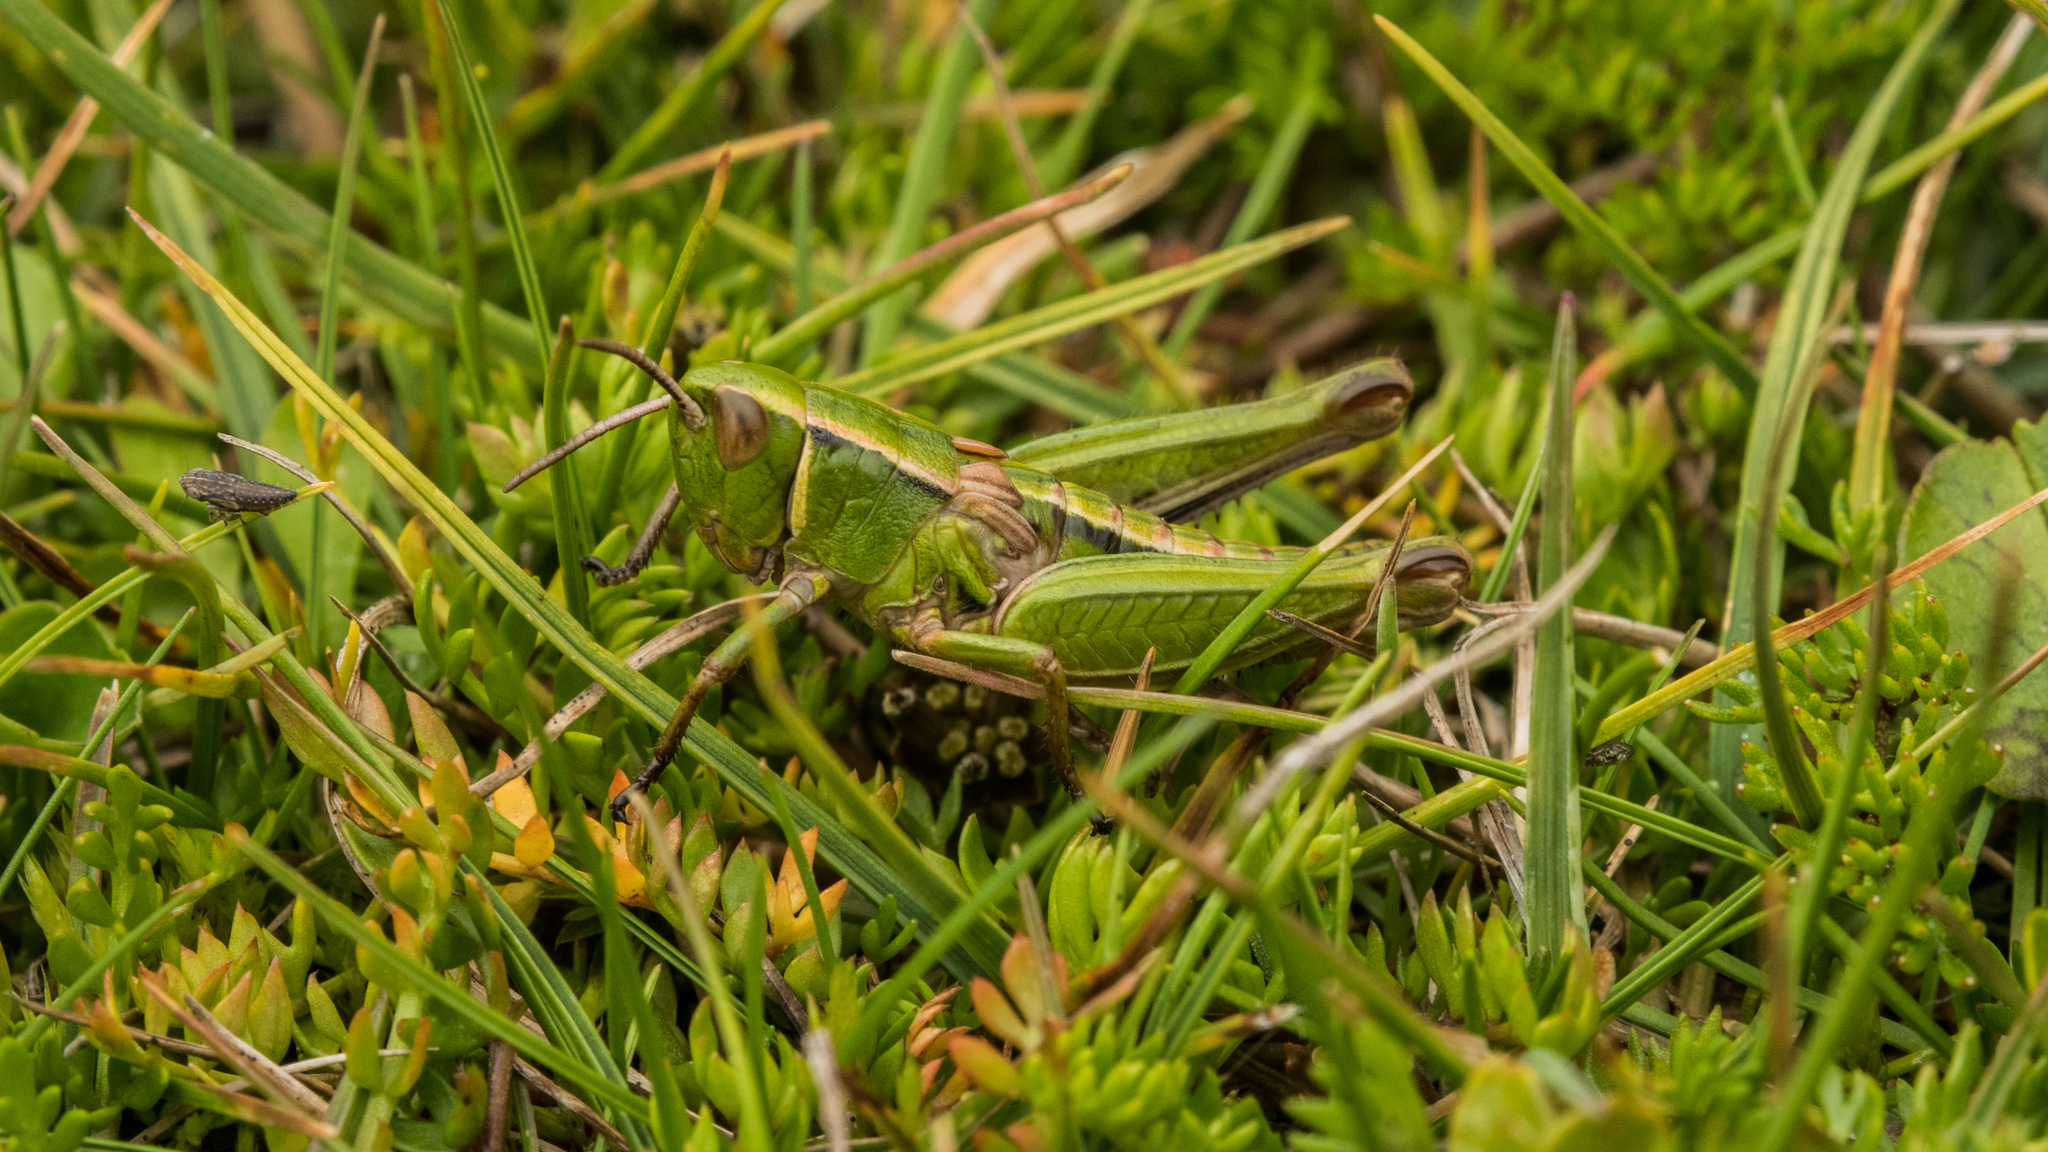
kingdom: Animalia
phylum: Arthropoda
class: Insecta
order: Orthoptera
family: Acrididae
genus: Sigaus
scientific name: Sigaus
